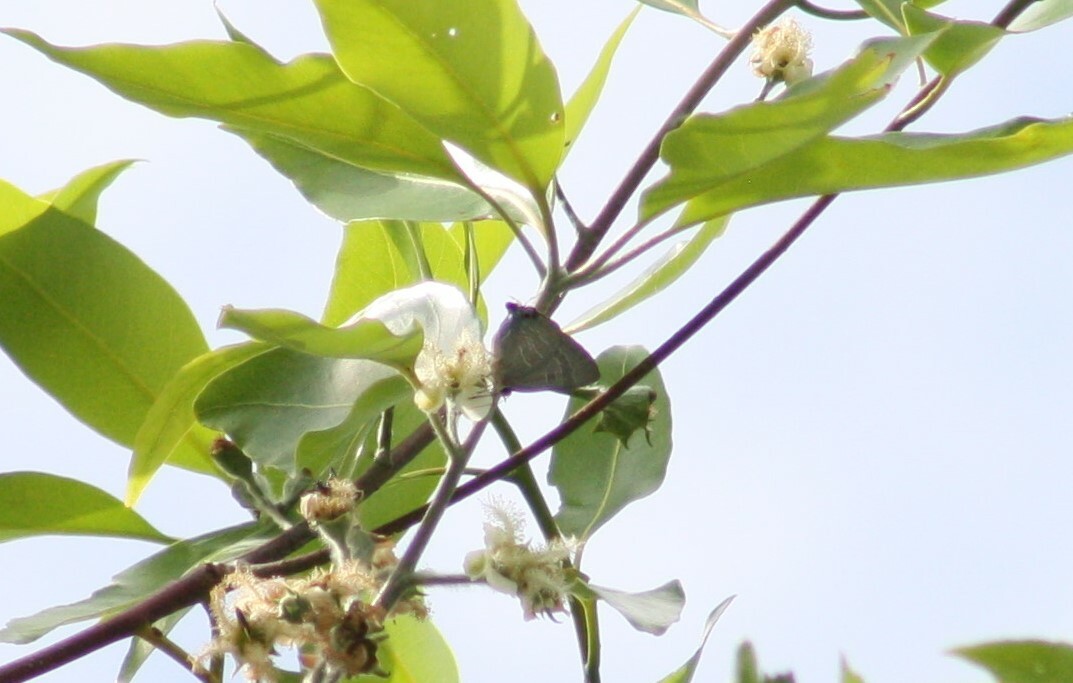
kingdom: Animalia
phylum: Arthropoda
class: Insecta
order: Lepidoptera
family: Lycaenidae
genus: Deudorix
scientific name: Deudorix diovis
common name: Bright cornelian
